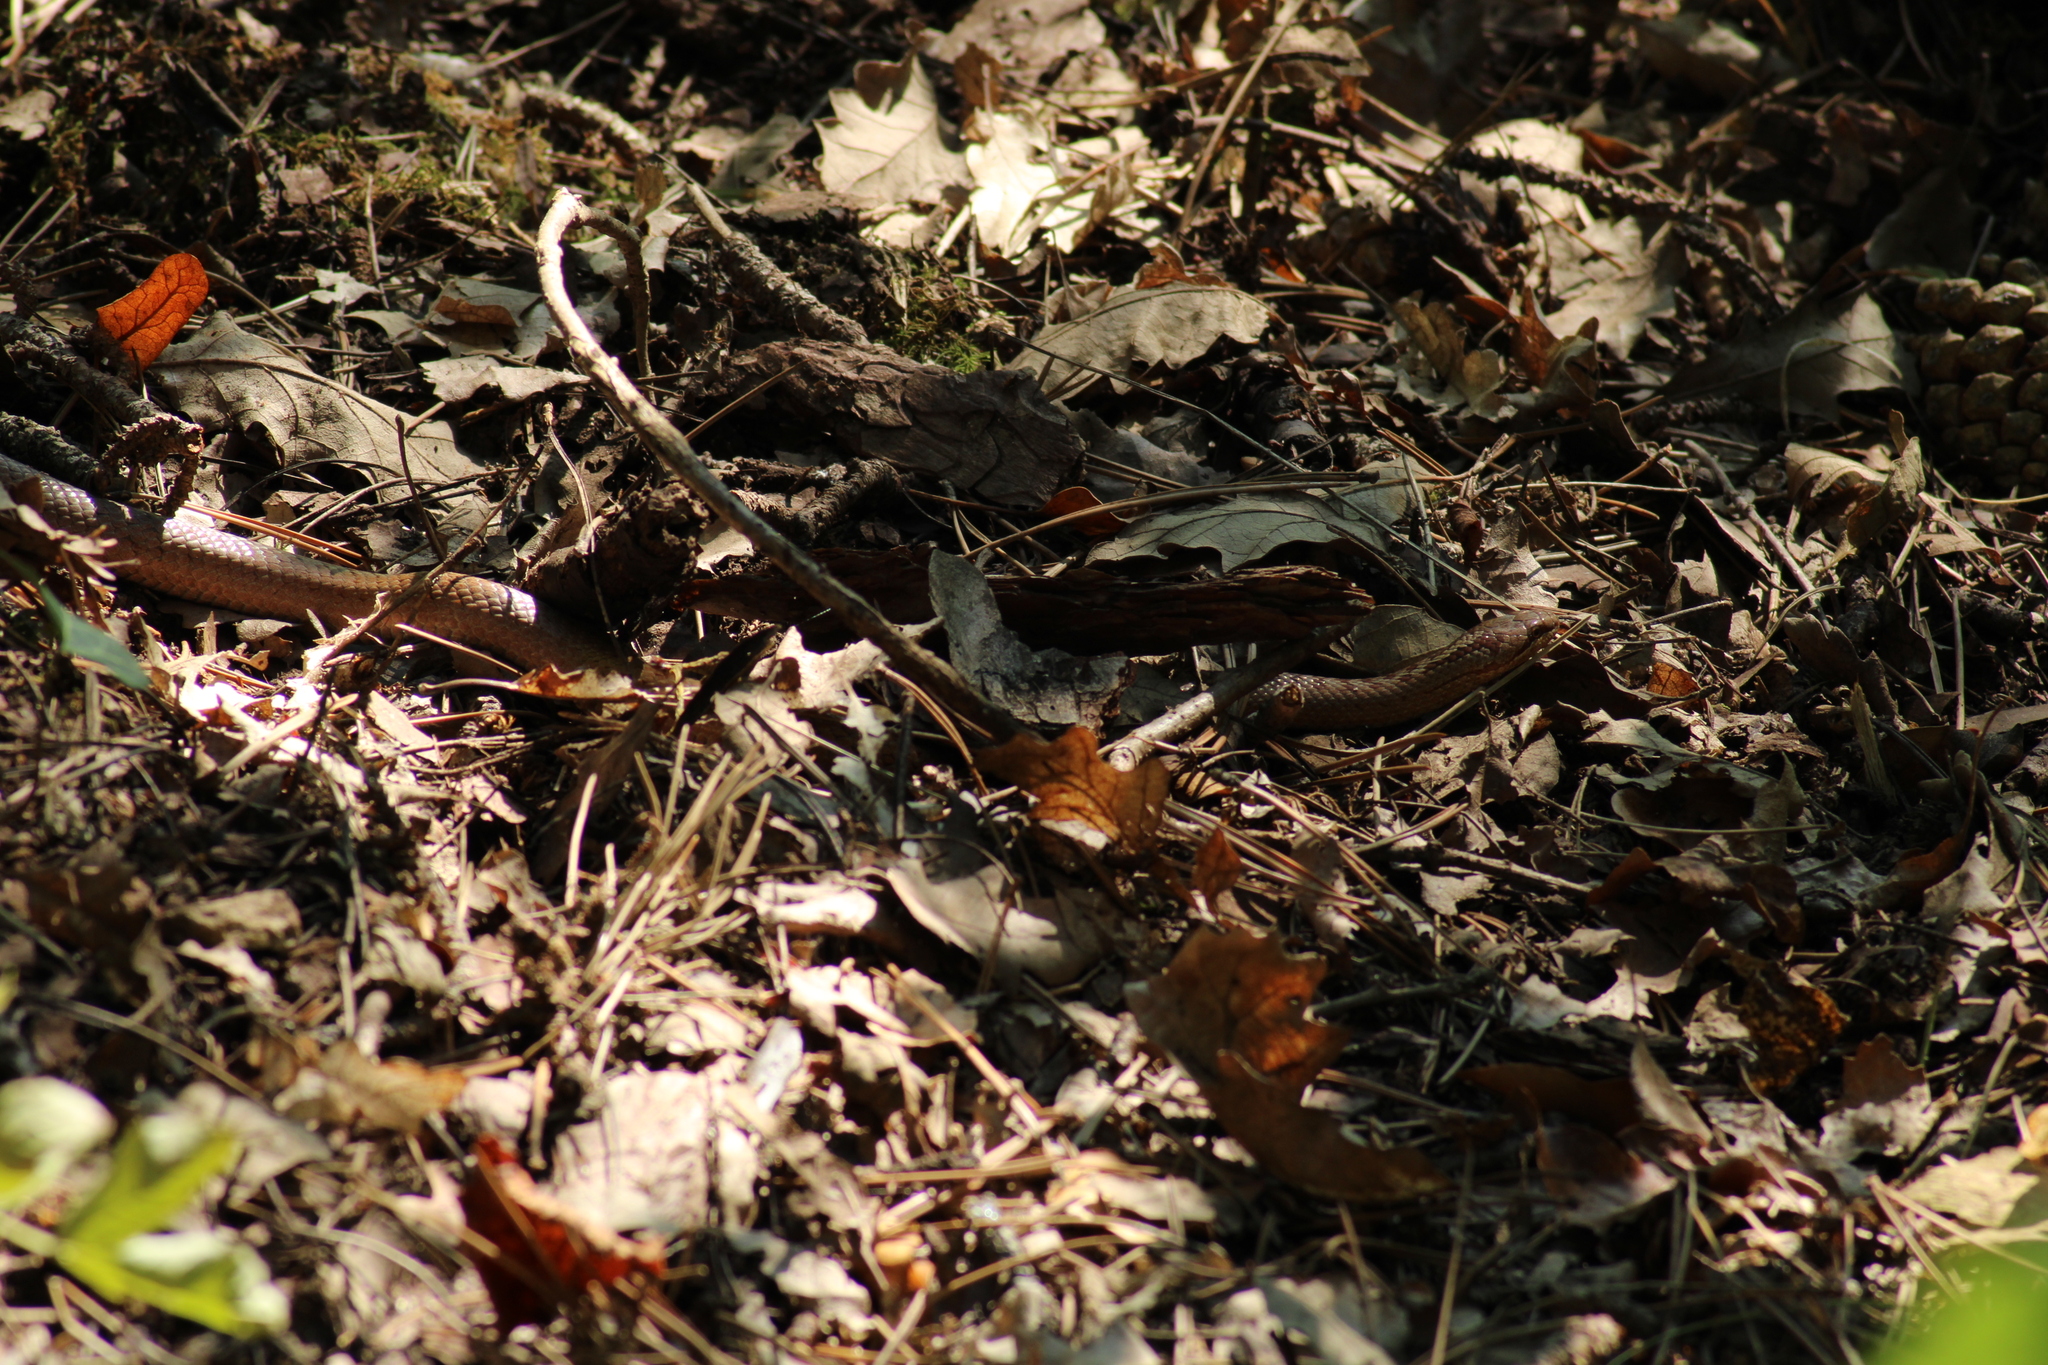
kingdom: Animalia
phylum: Chordata
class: Squamata
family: Colubridae
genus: Coronella
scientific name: Coronella austriaca
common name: Smooth snake
